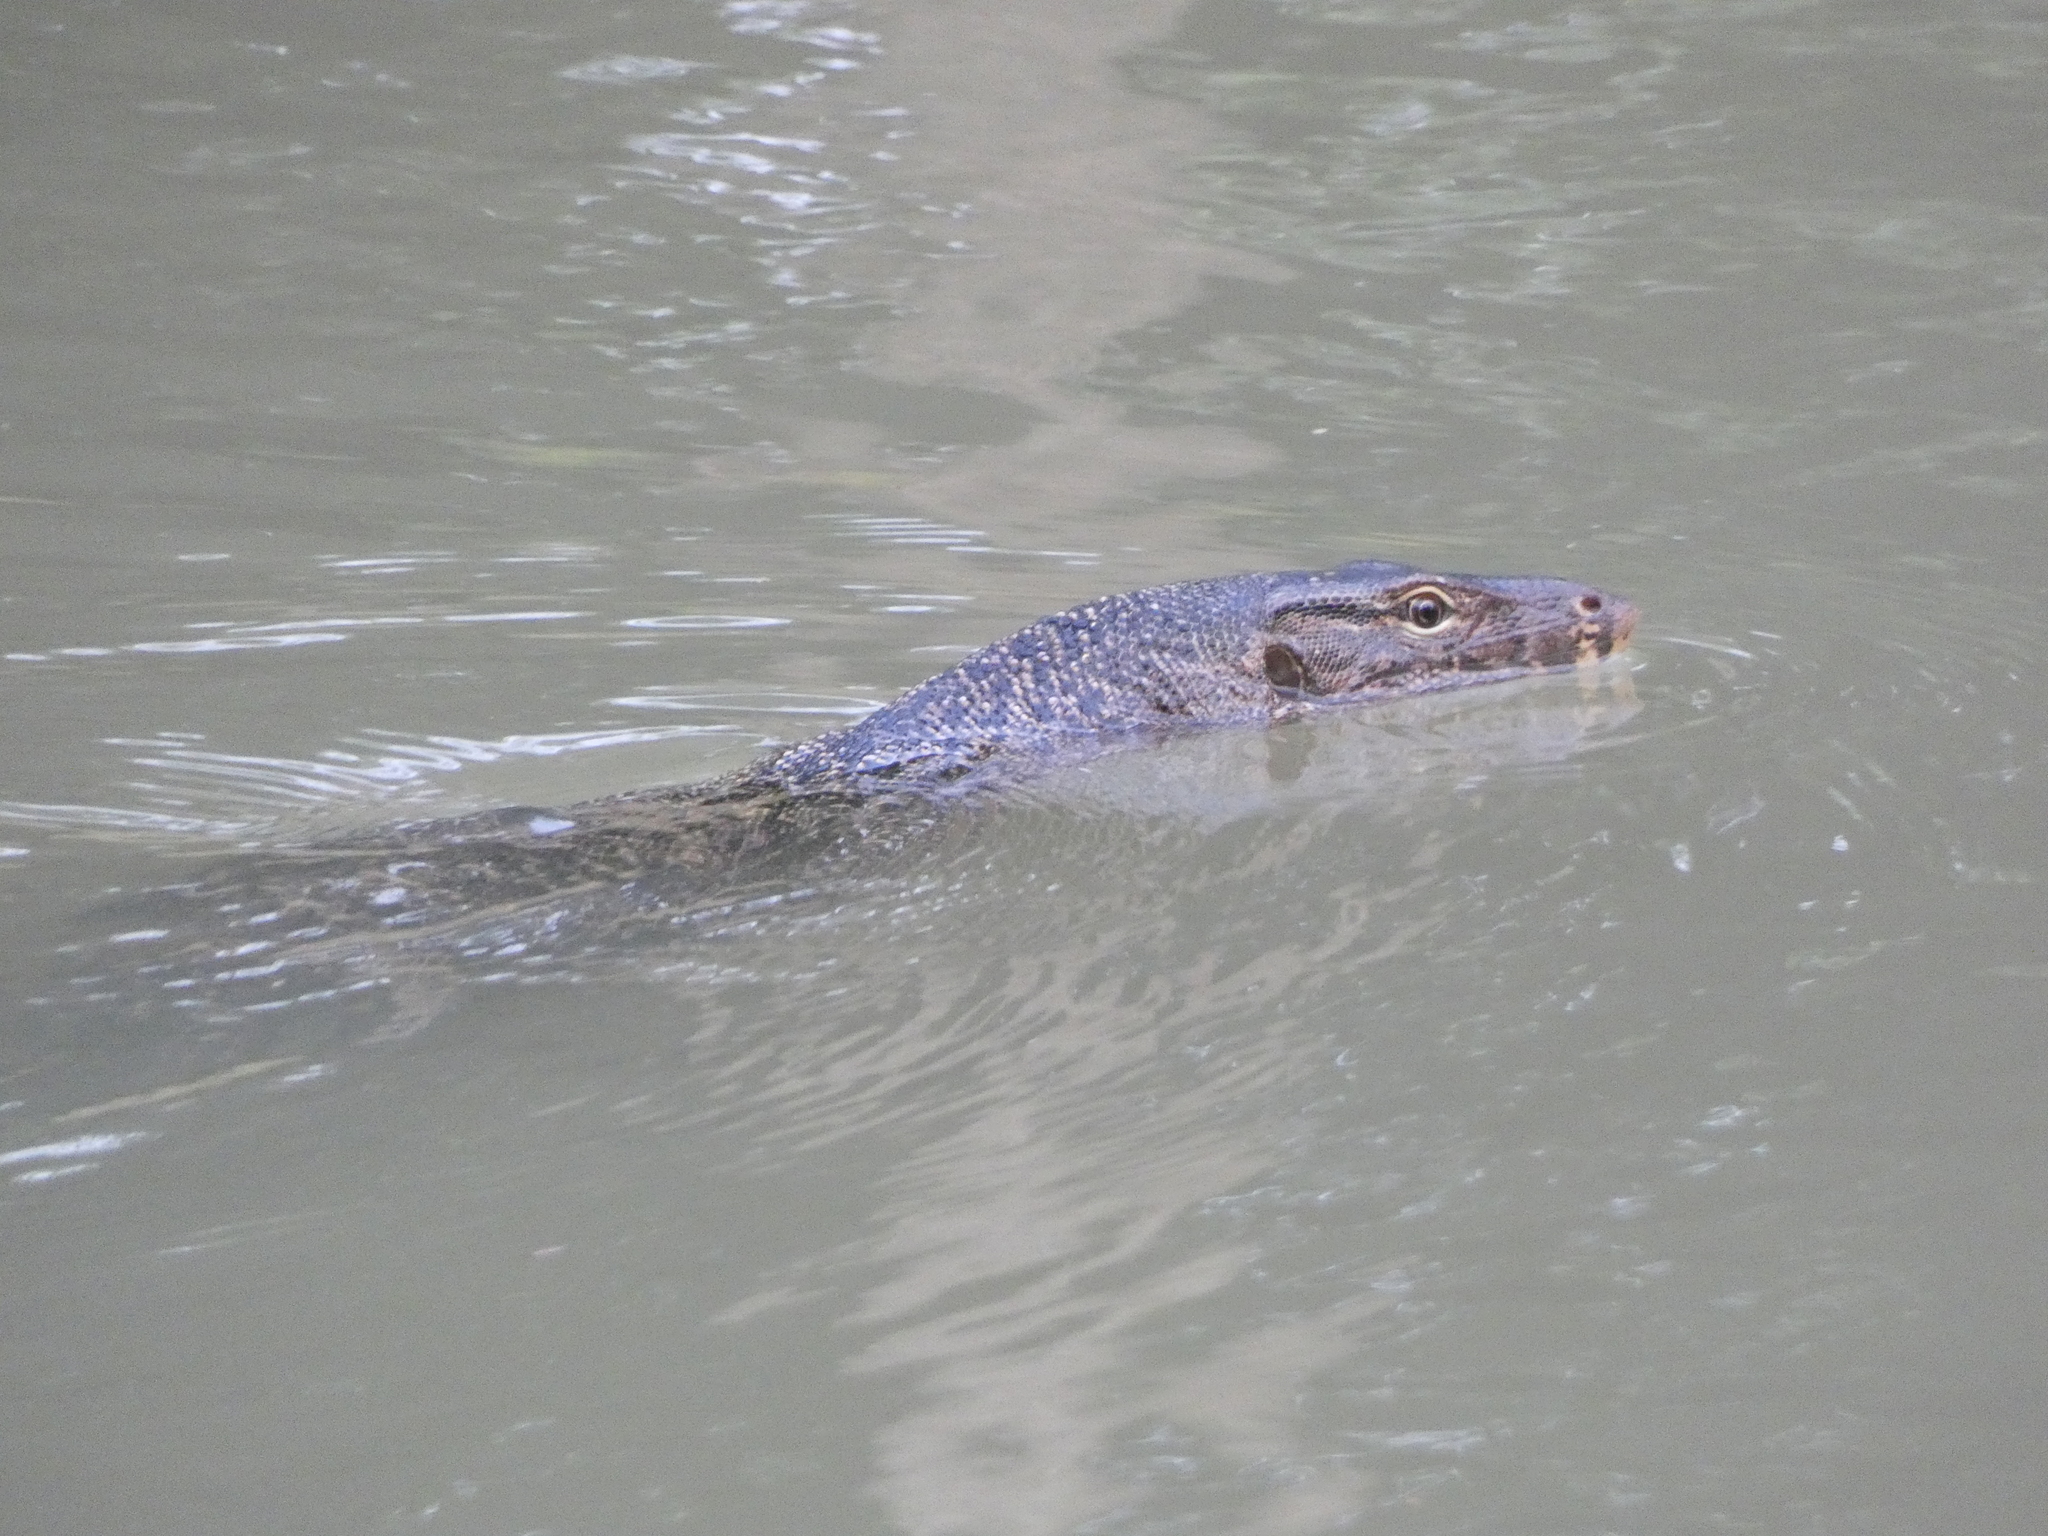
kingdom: Animalia
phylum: Chordata
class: Squamata
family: Varanidae
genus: Varanus
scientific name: Varanus salvator
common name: Common water monitor
